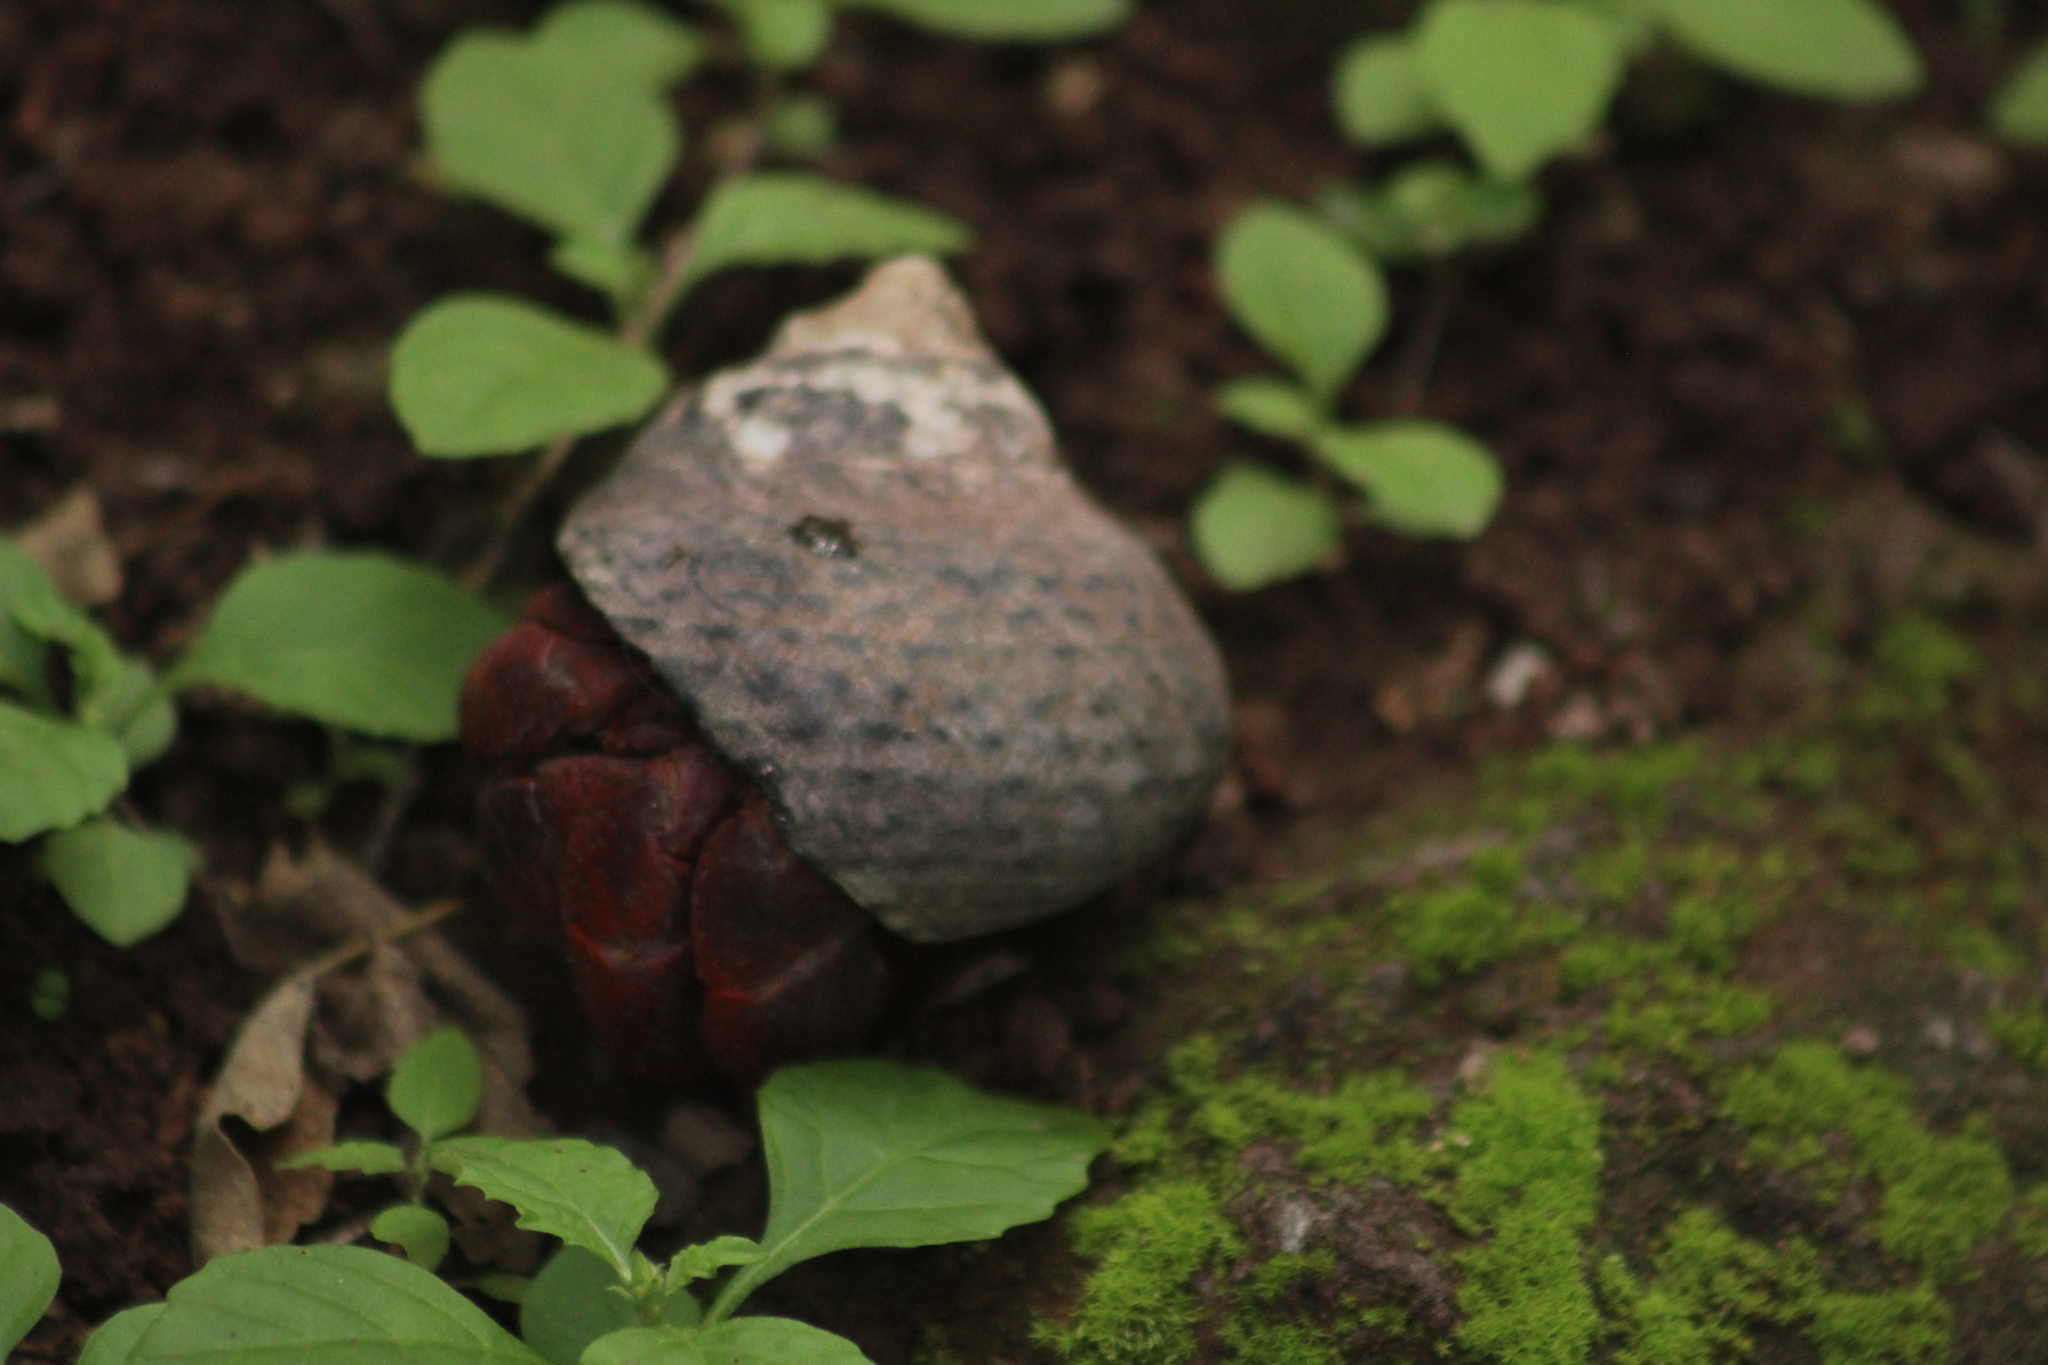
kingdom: Animalia
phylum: Arthropoda
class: Malacostraca
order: Decapoda
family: Coenobitidae
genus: Coenobita
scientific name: Coenobita clypeatus
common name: Caribbean hermit crab
